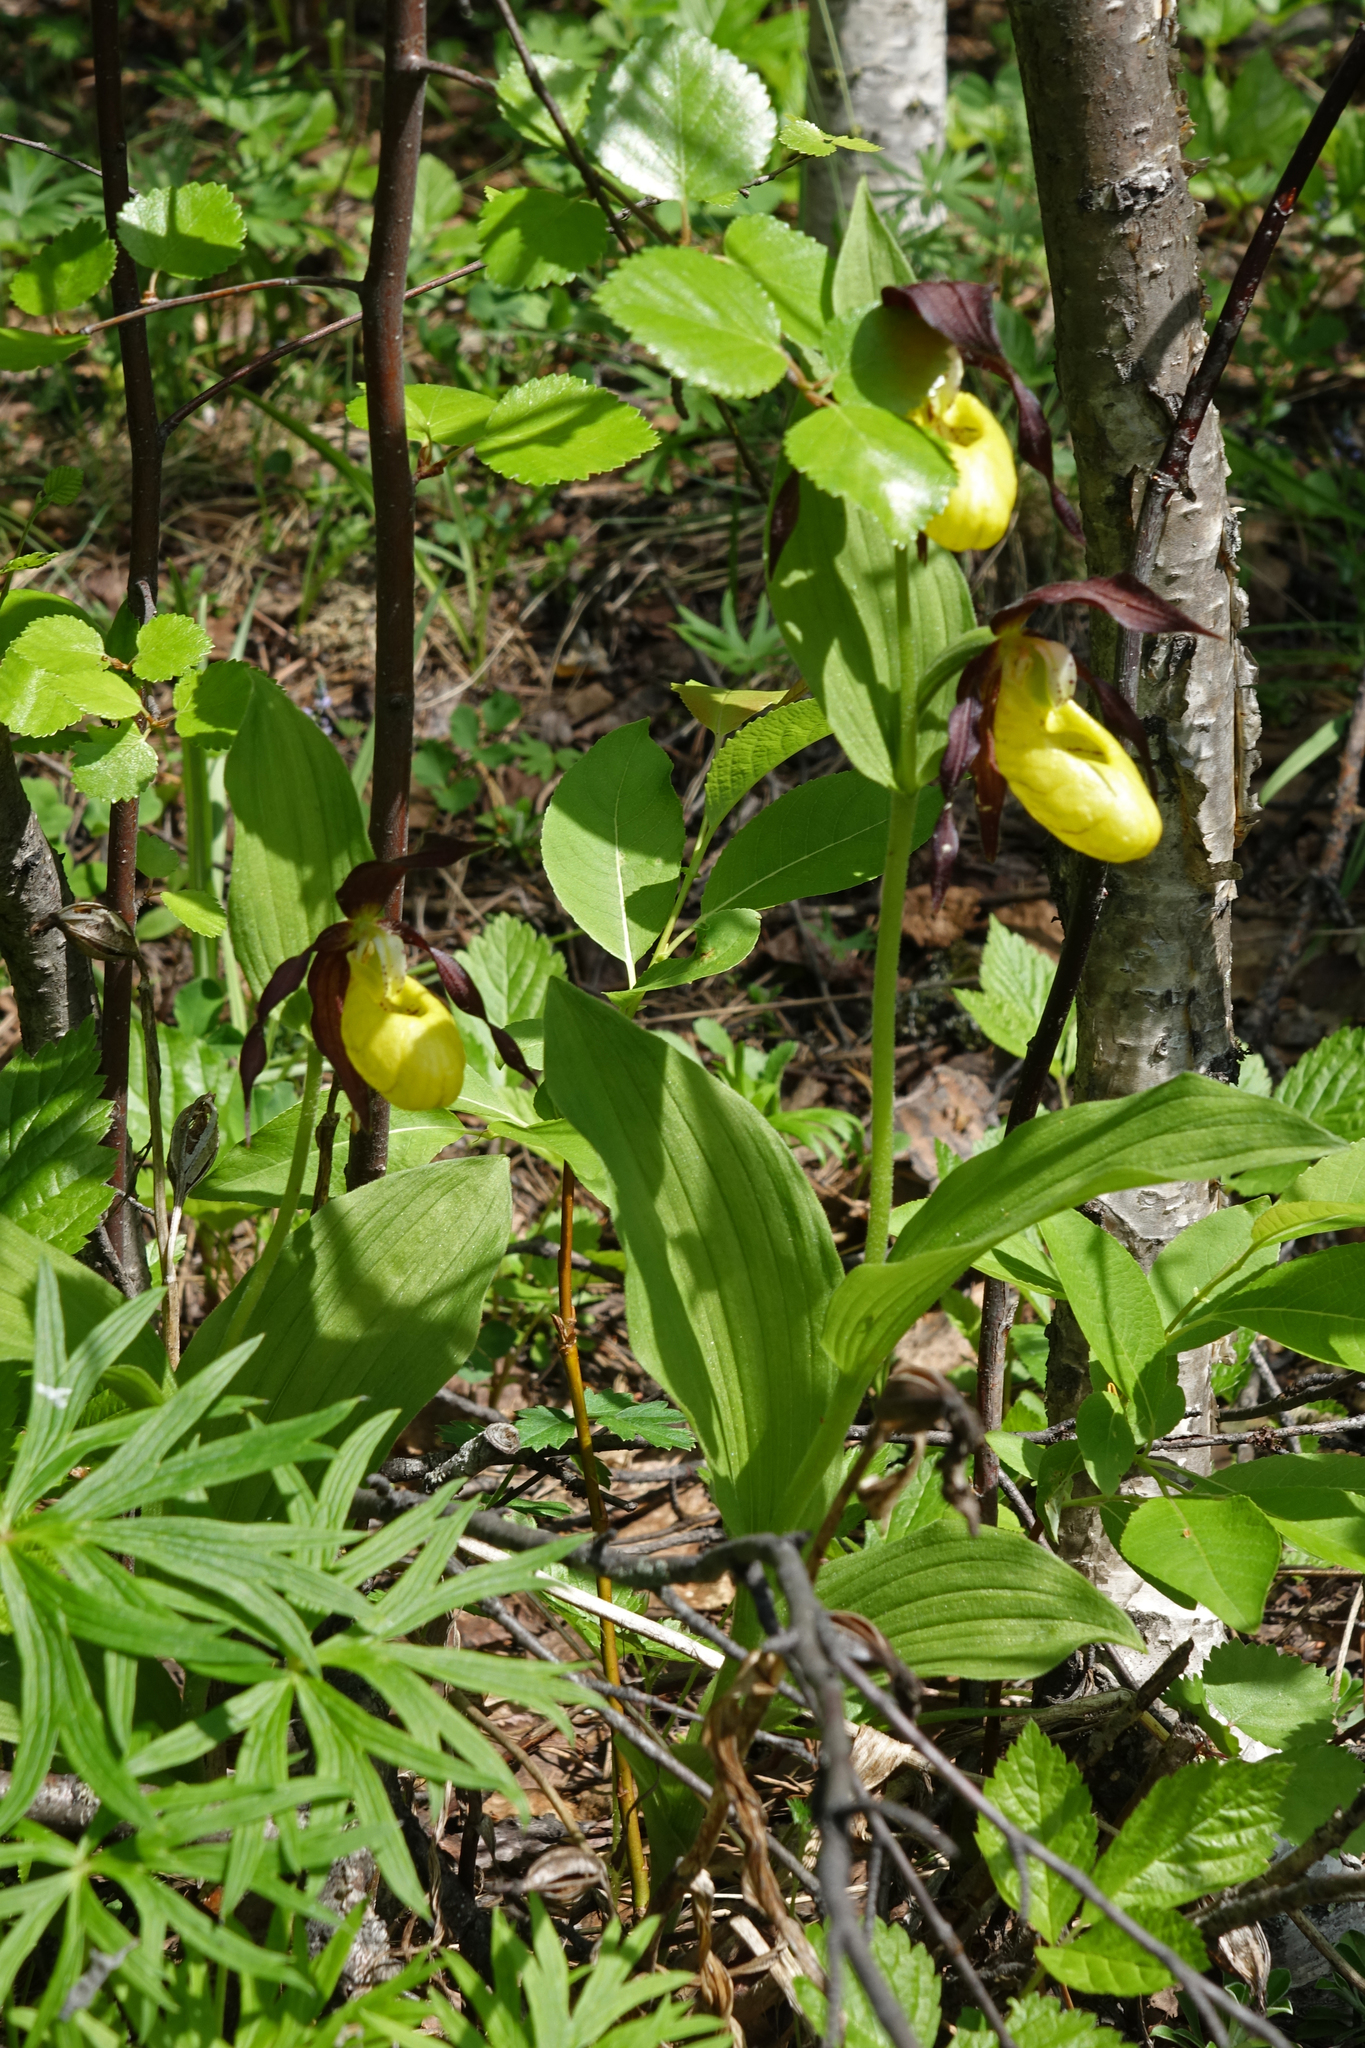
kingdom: Plantae
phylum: Tracheophyta
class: Liliopsida
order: Asparagales
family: Orchidaceae
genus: Cypripedium
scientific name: Cypripedium calceolus
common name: Lady's-slipper
